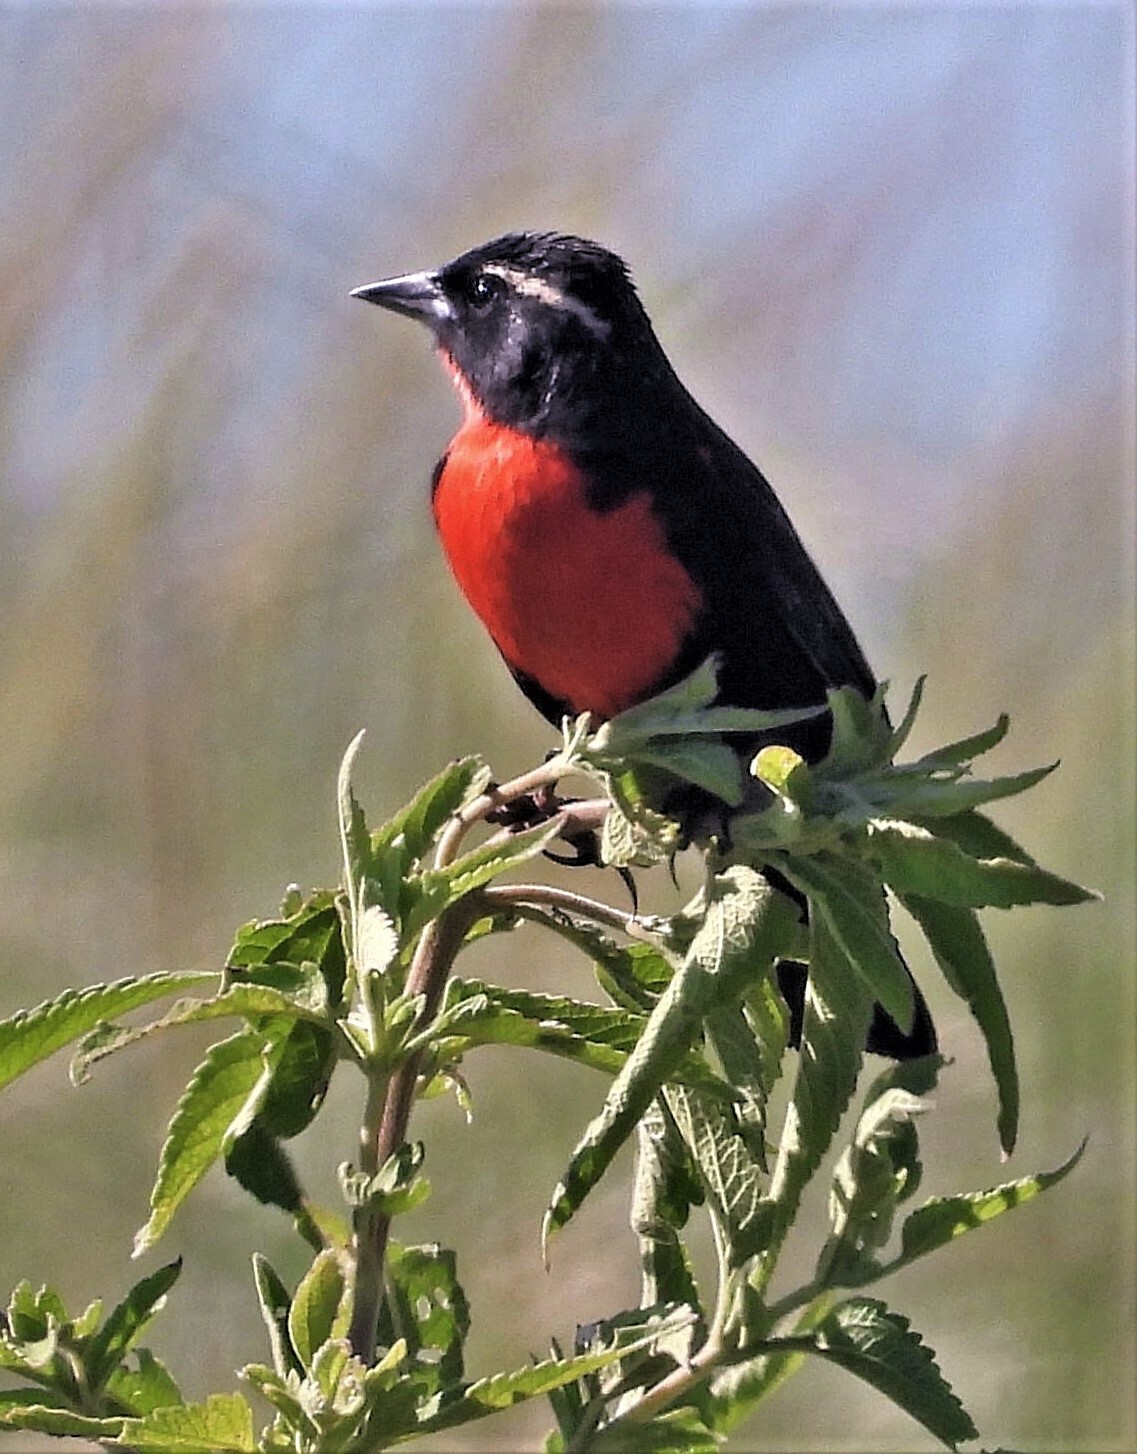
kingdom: Animalia
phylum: Chordata
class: Aves
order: Passeriformes
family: Icteridae
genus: Sturnella
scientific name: Sturnella superciliaris
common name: White-browed blackbird
